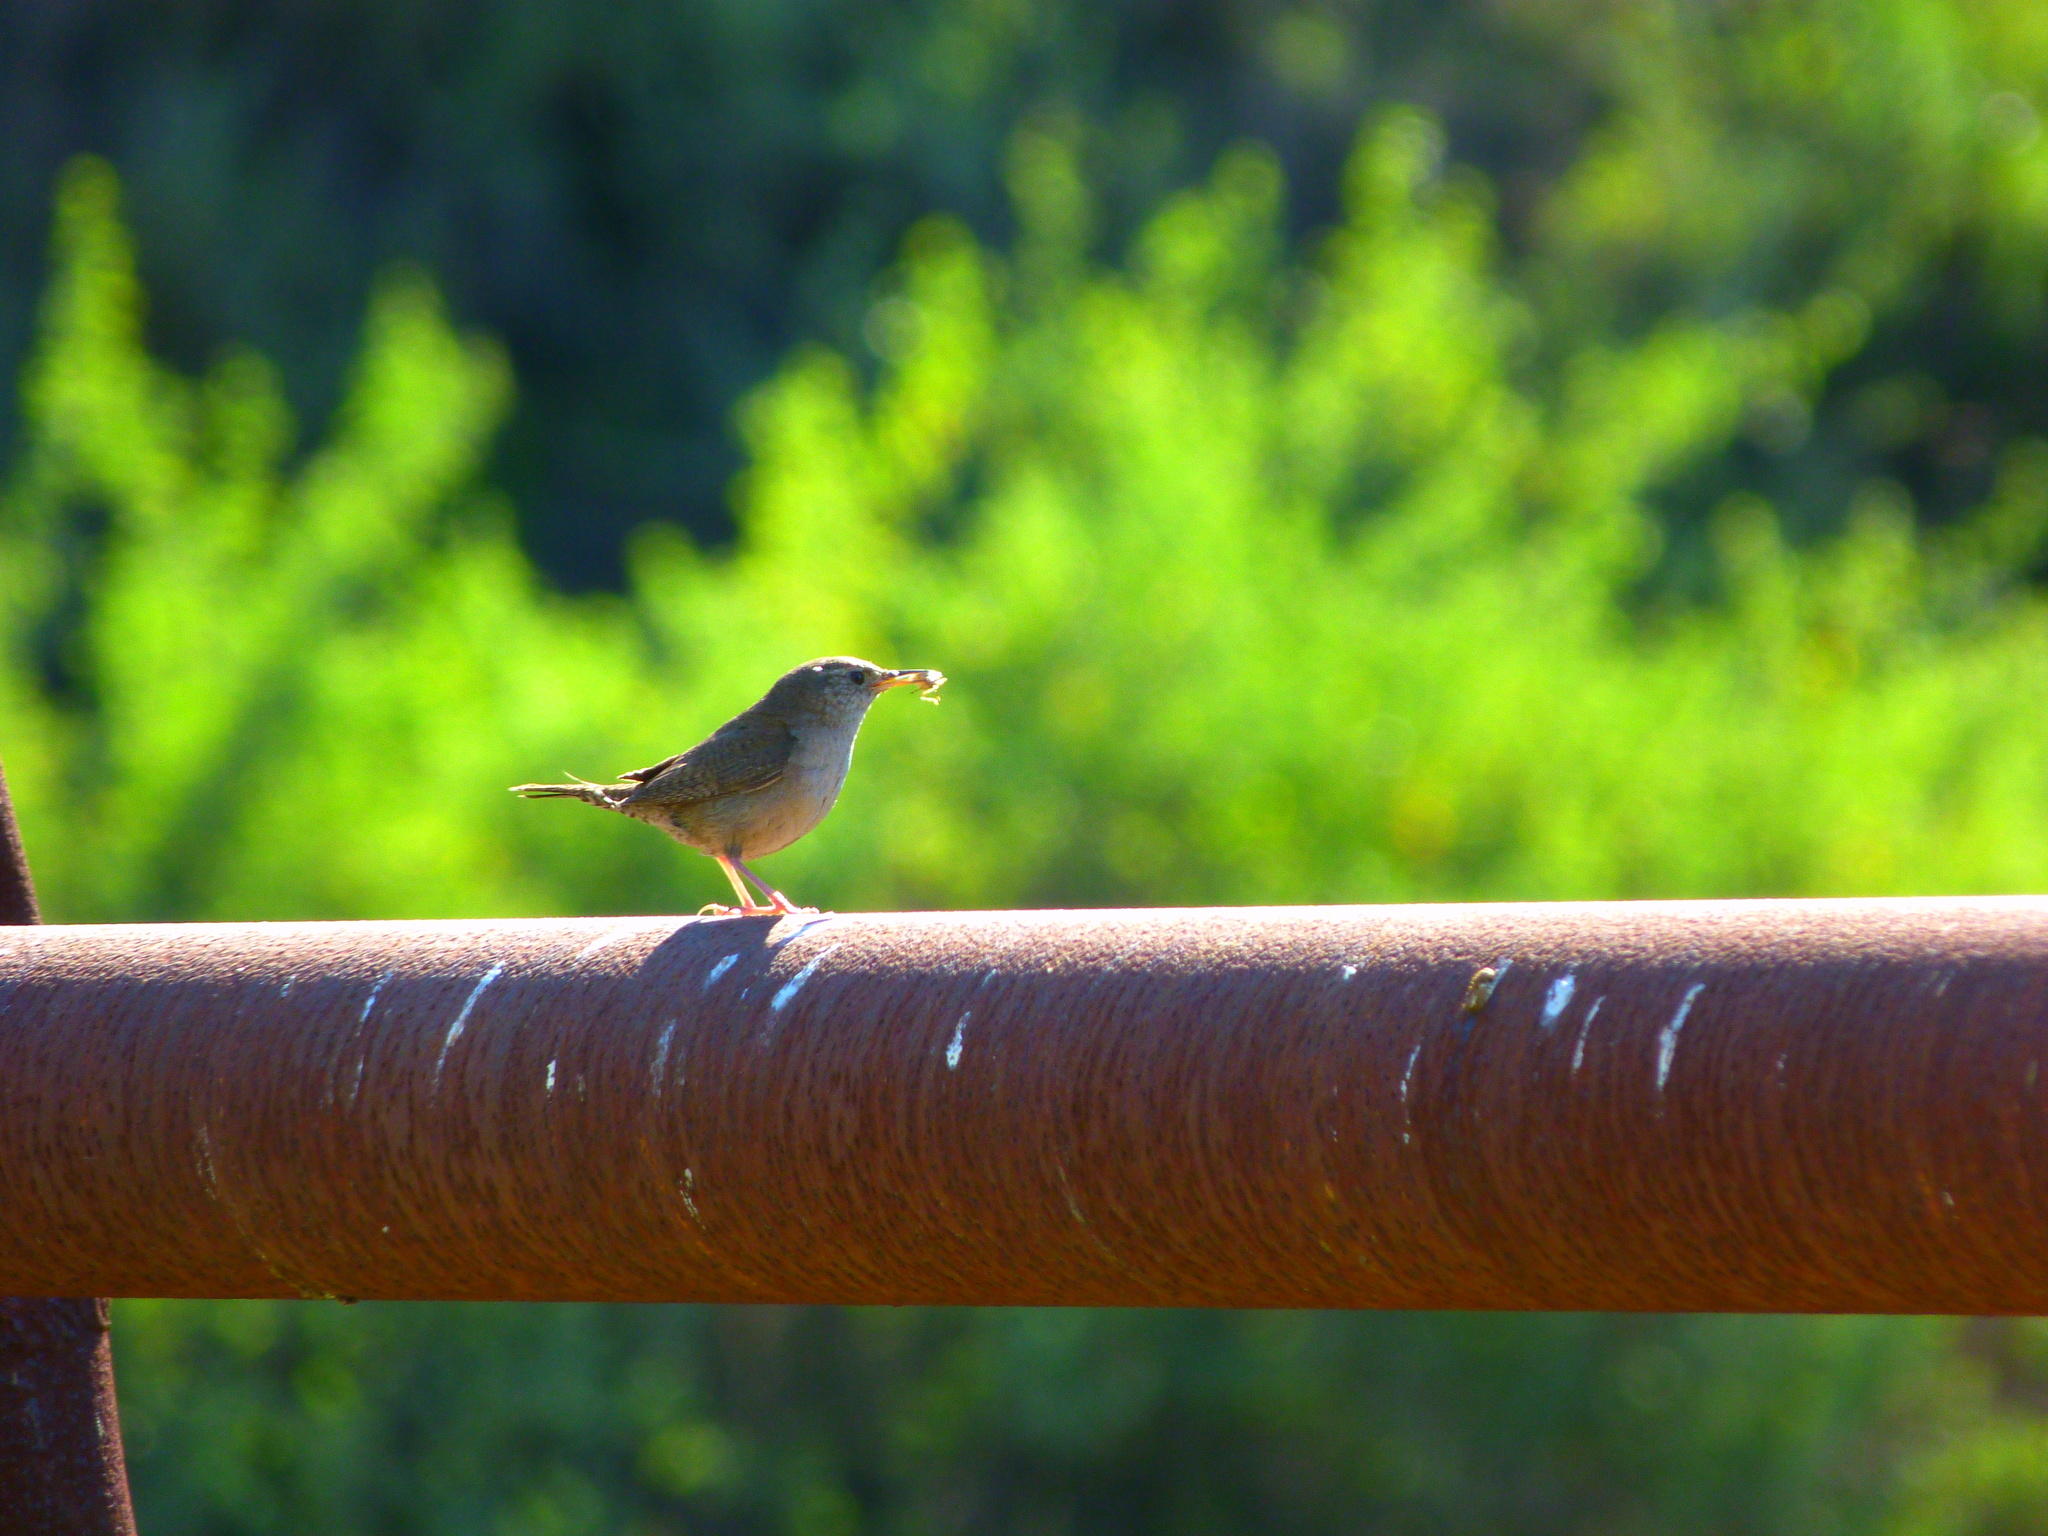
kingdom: Animalia
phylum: Chordata
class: Aves
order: Passeriformes
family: Troglodytidae
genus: Troglodytes
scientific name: Troglodytes aedon
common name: House wren
